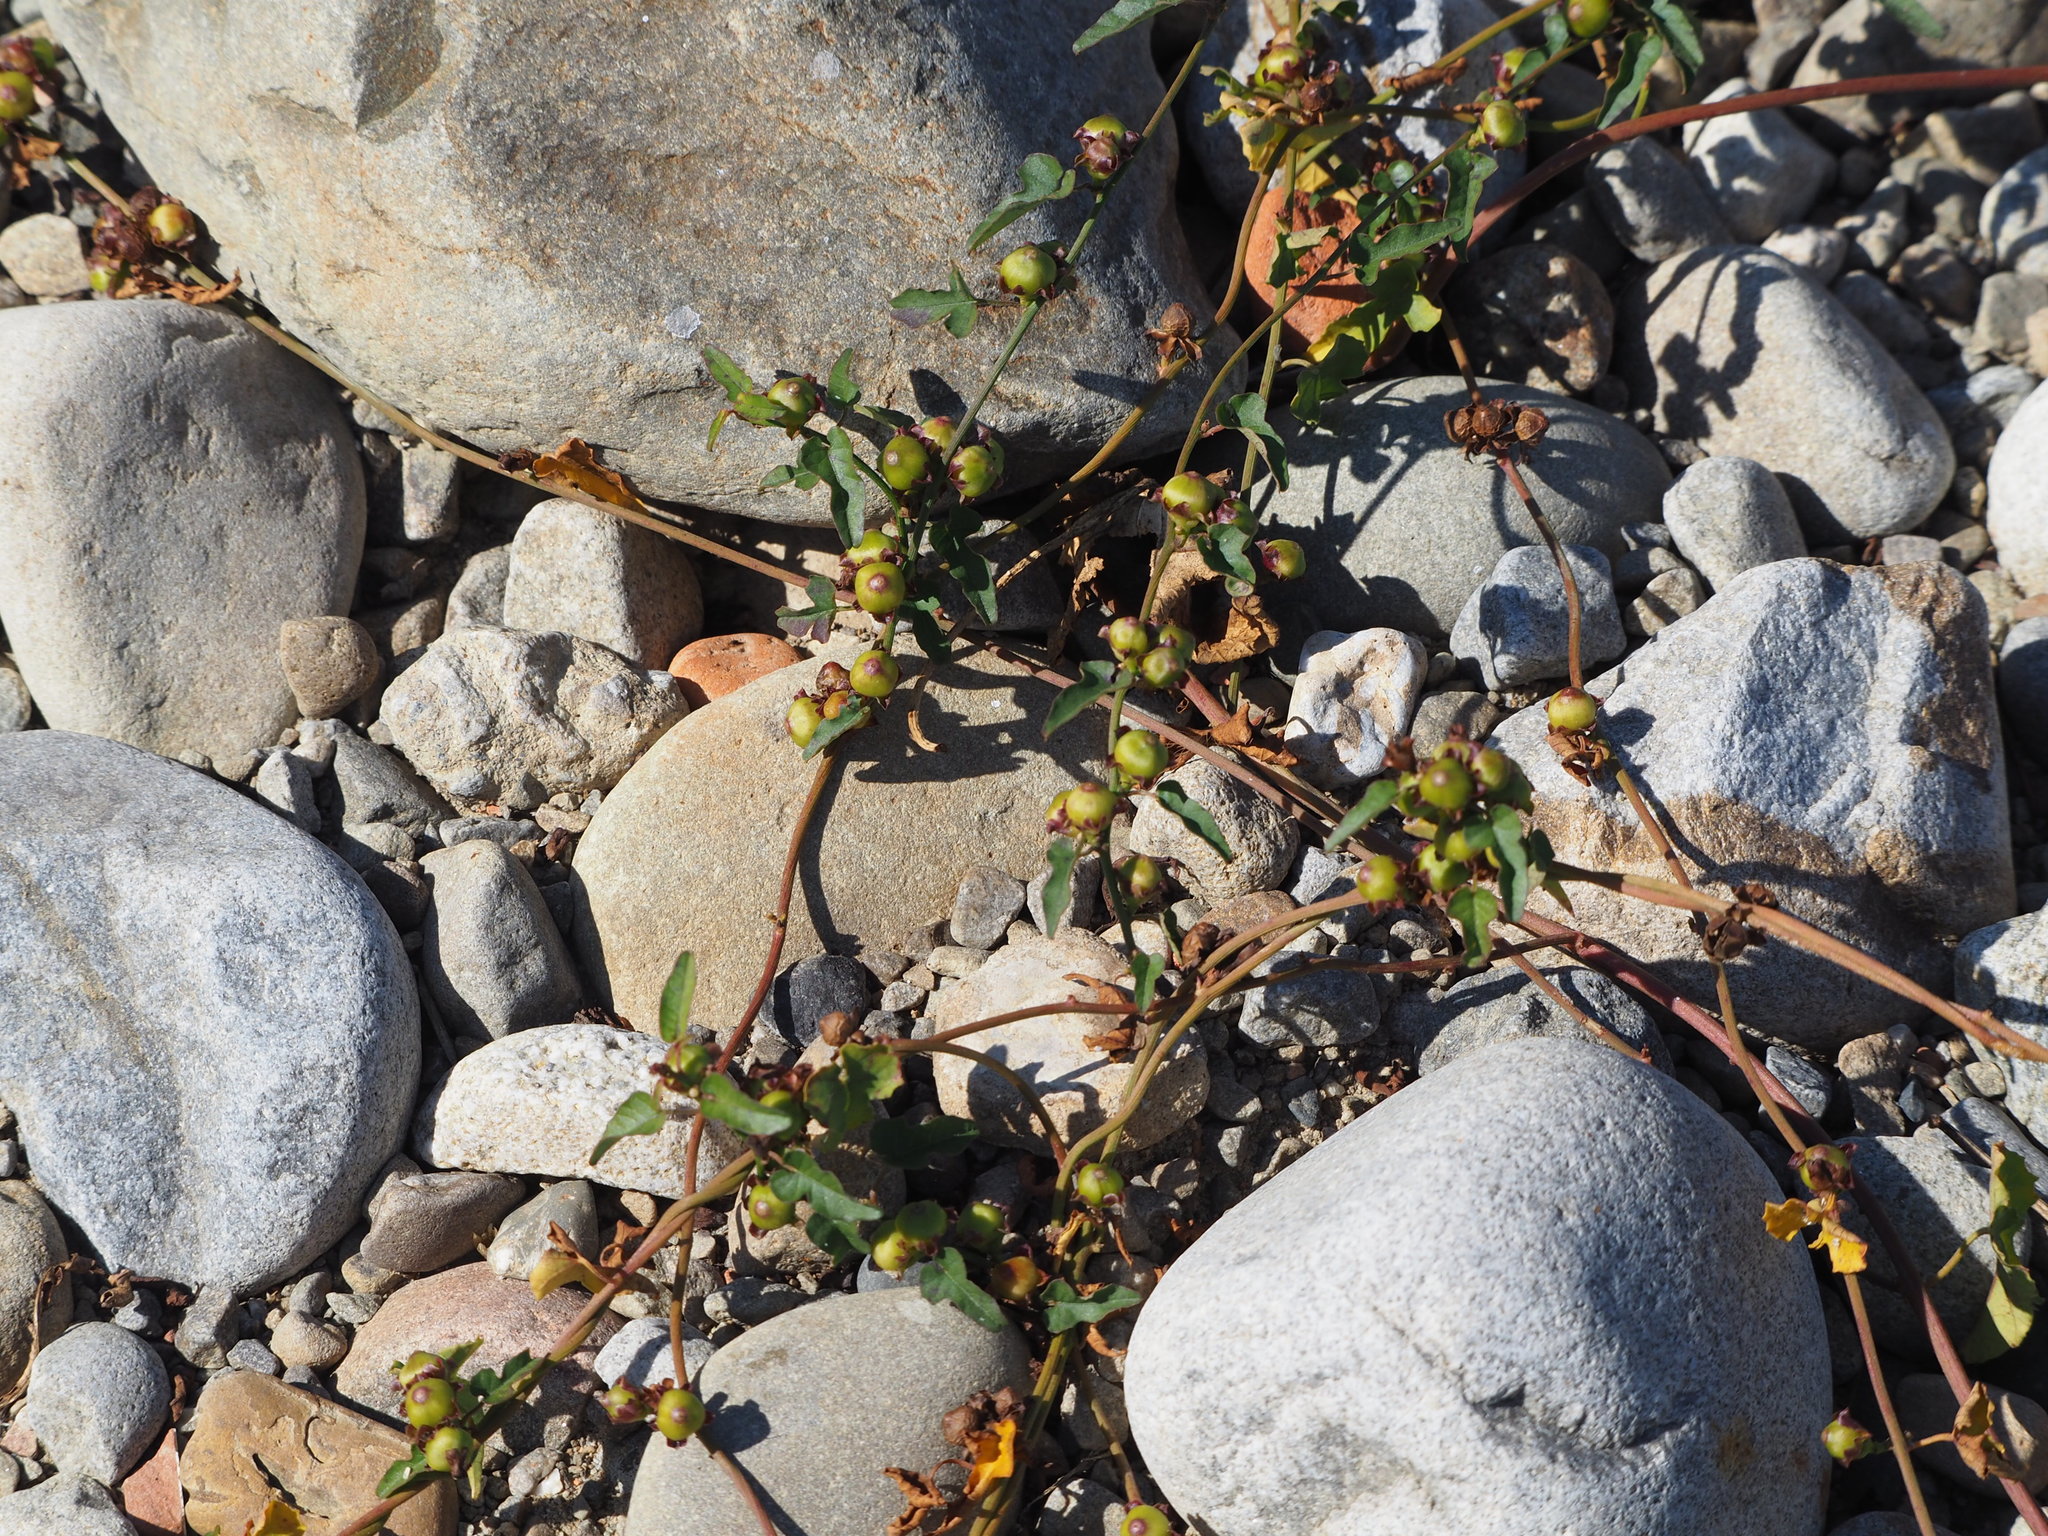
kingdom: Plantae
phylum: Tracheophyta
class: Magnoliopsida
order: Solanales
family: Convolvulaceae
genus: Merremia
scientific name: Merremia hederacea
